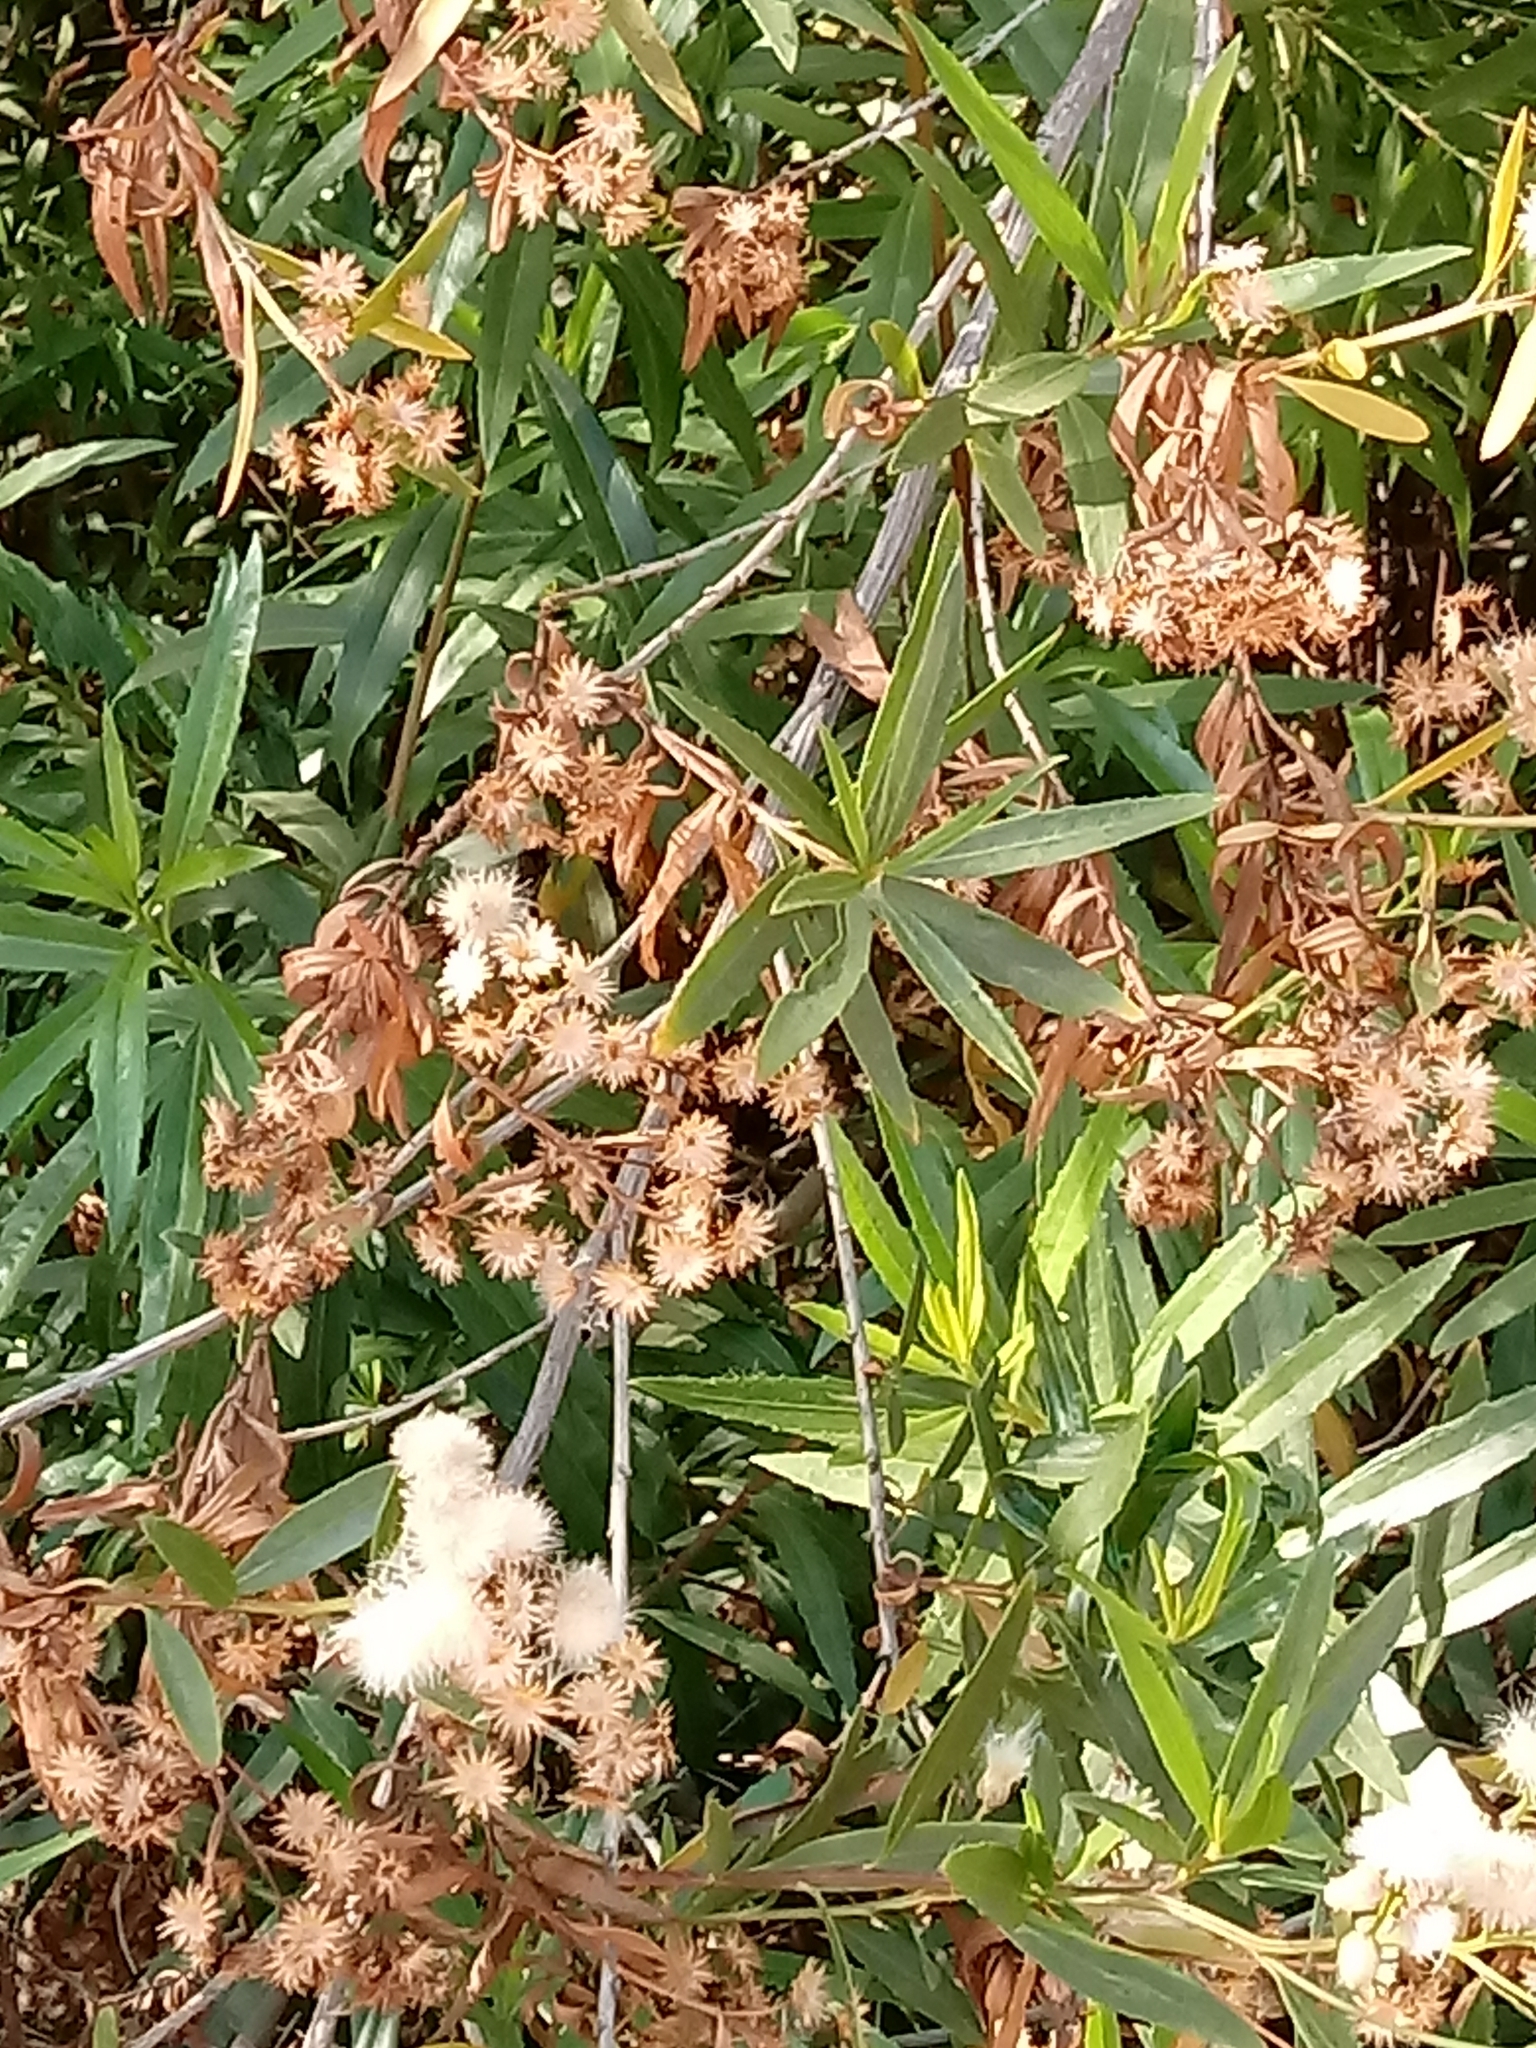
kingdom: Plantae
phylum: Tracheophyta
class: Magnoliopsida
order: Asterales
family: Asteraceae
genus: Baccharis
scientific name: Baccharis salicifolia
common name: Sticky baccharis
